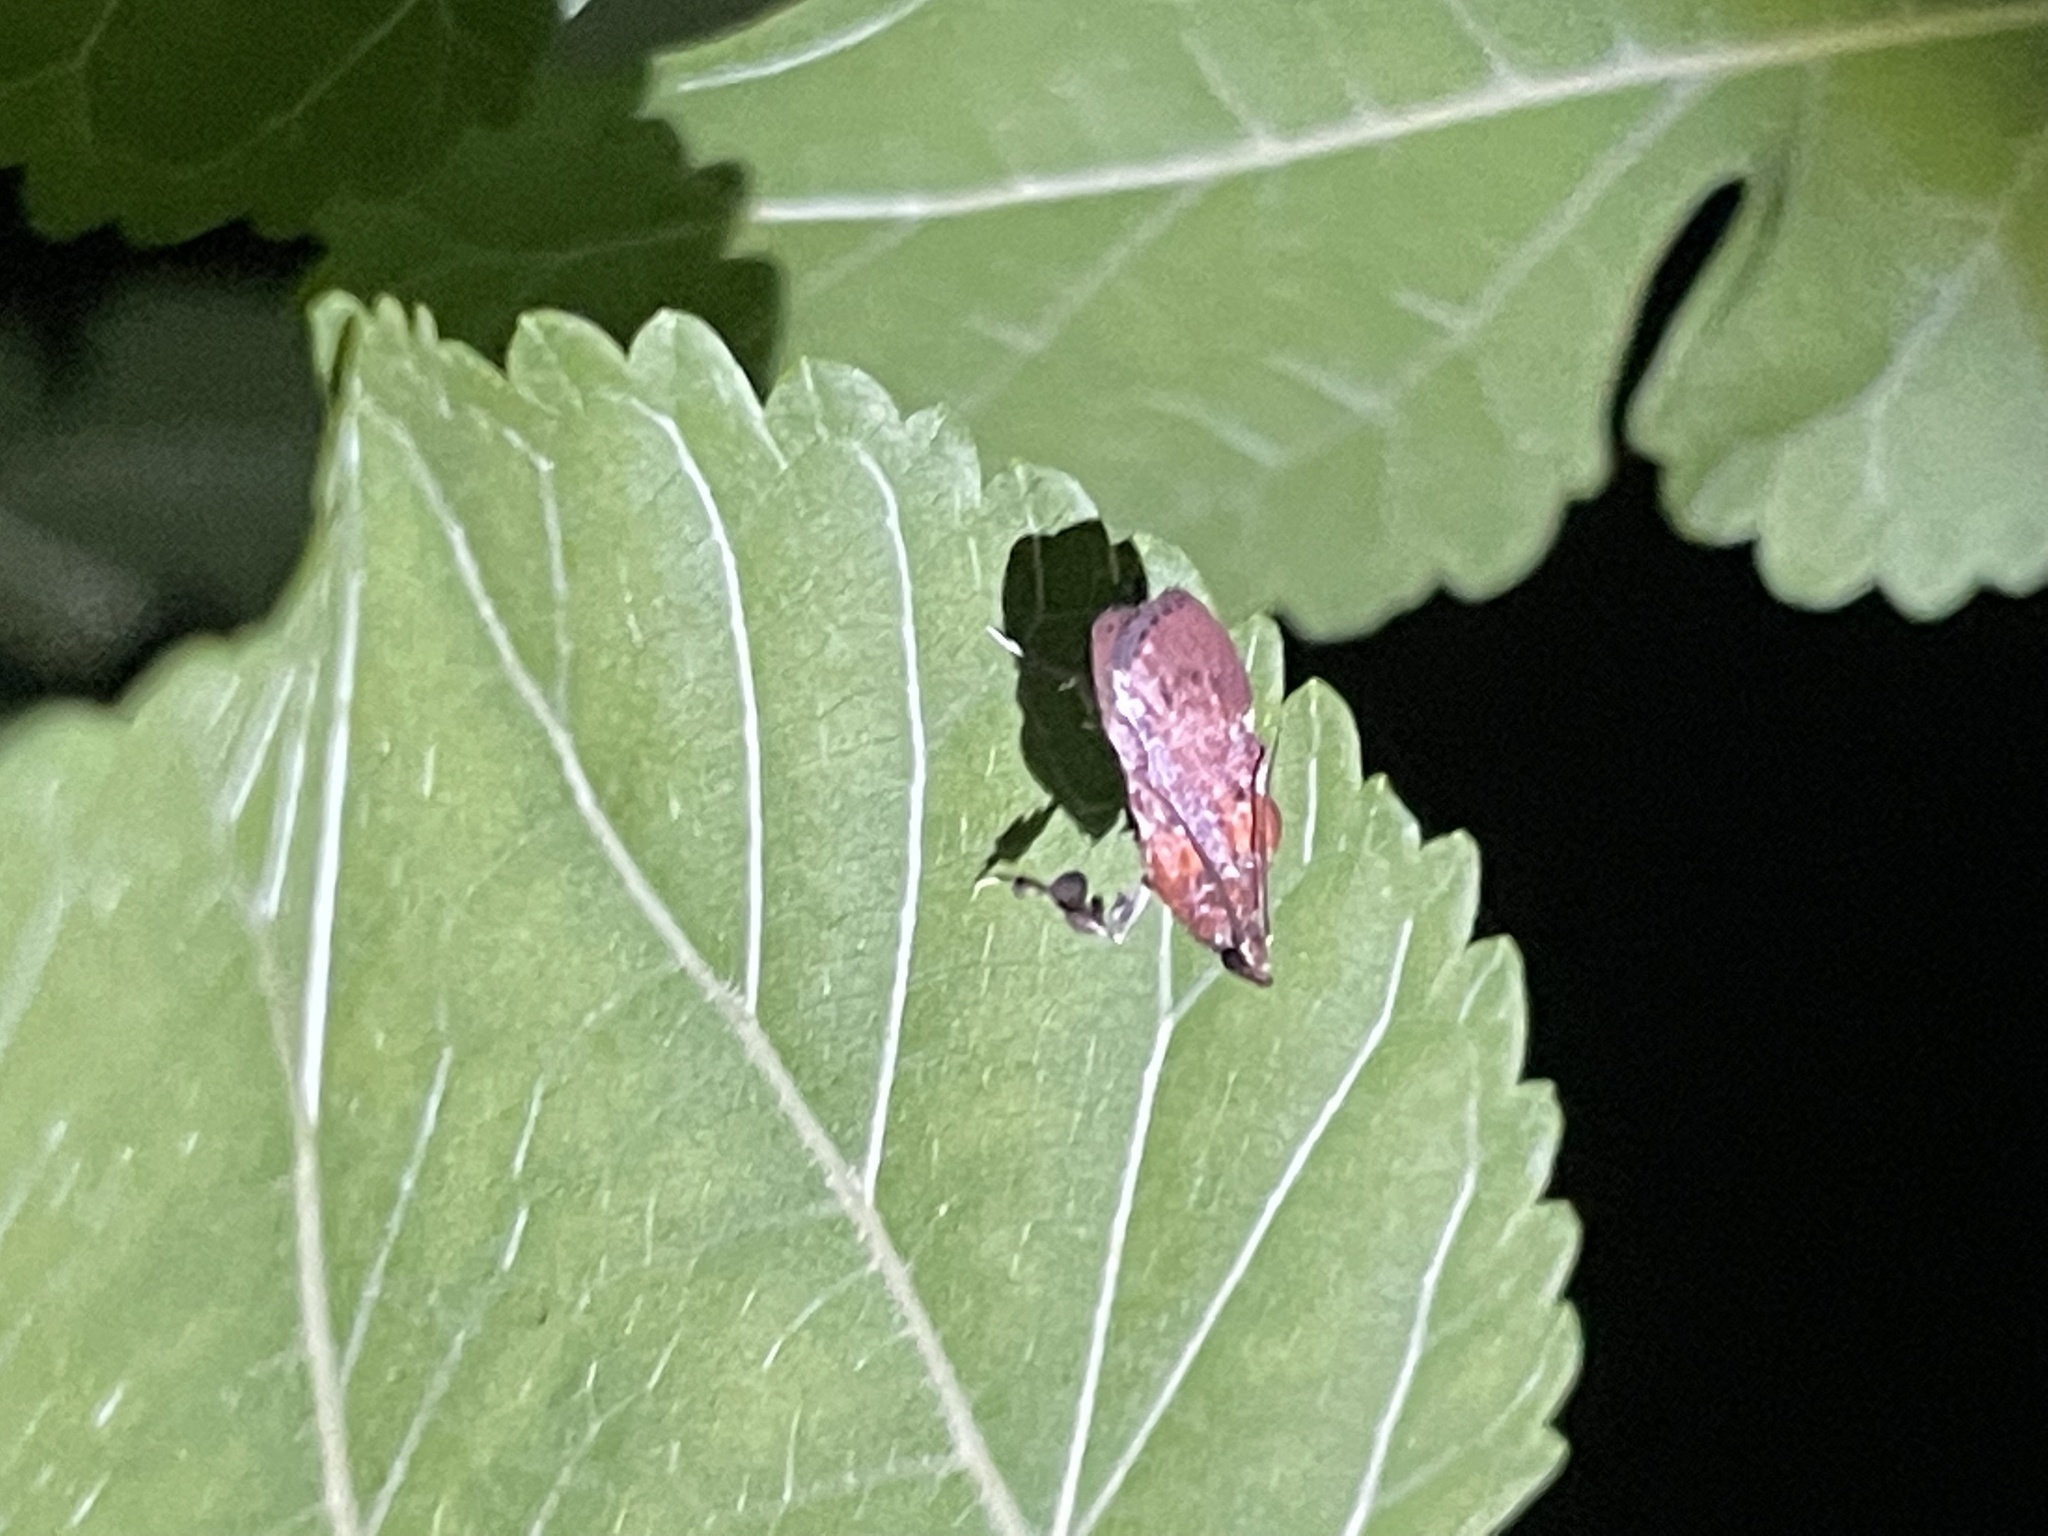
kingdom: Animalia
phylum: Arthropoda
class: Insecta
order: Lepidoptera
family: Pyralidae
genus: Galasa
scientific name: Galasa nigrinodis
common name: Boxwood leaftier moth
